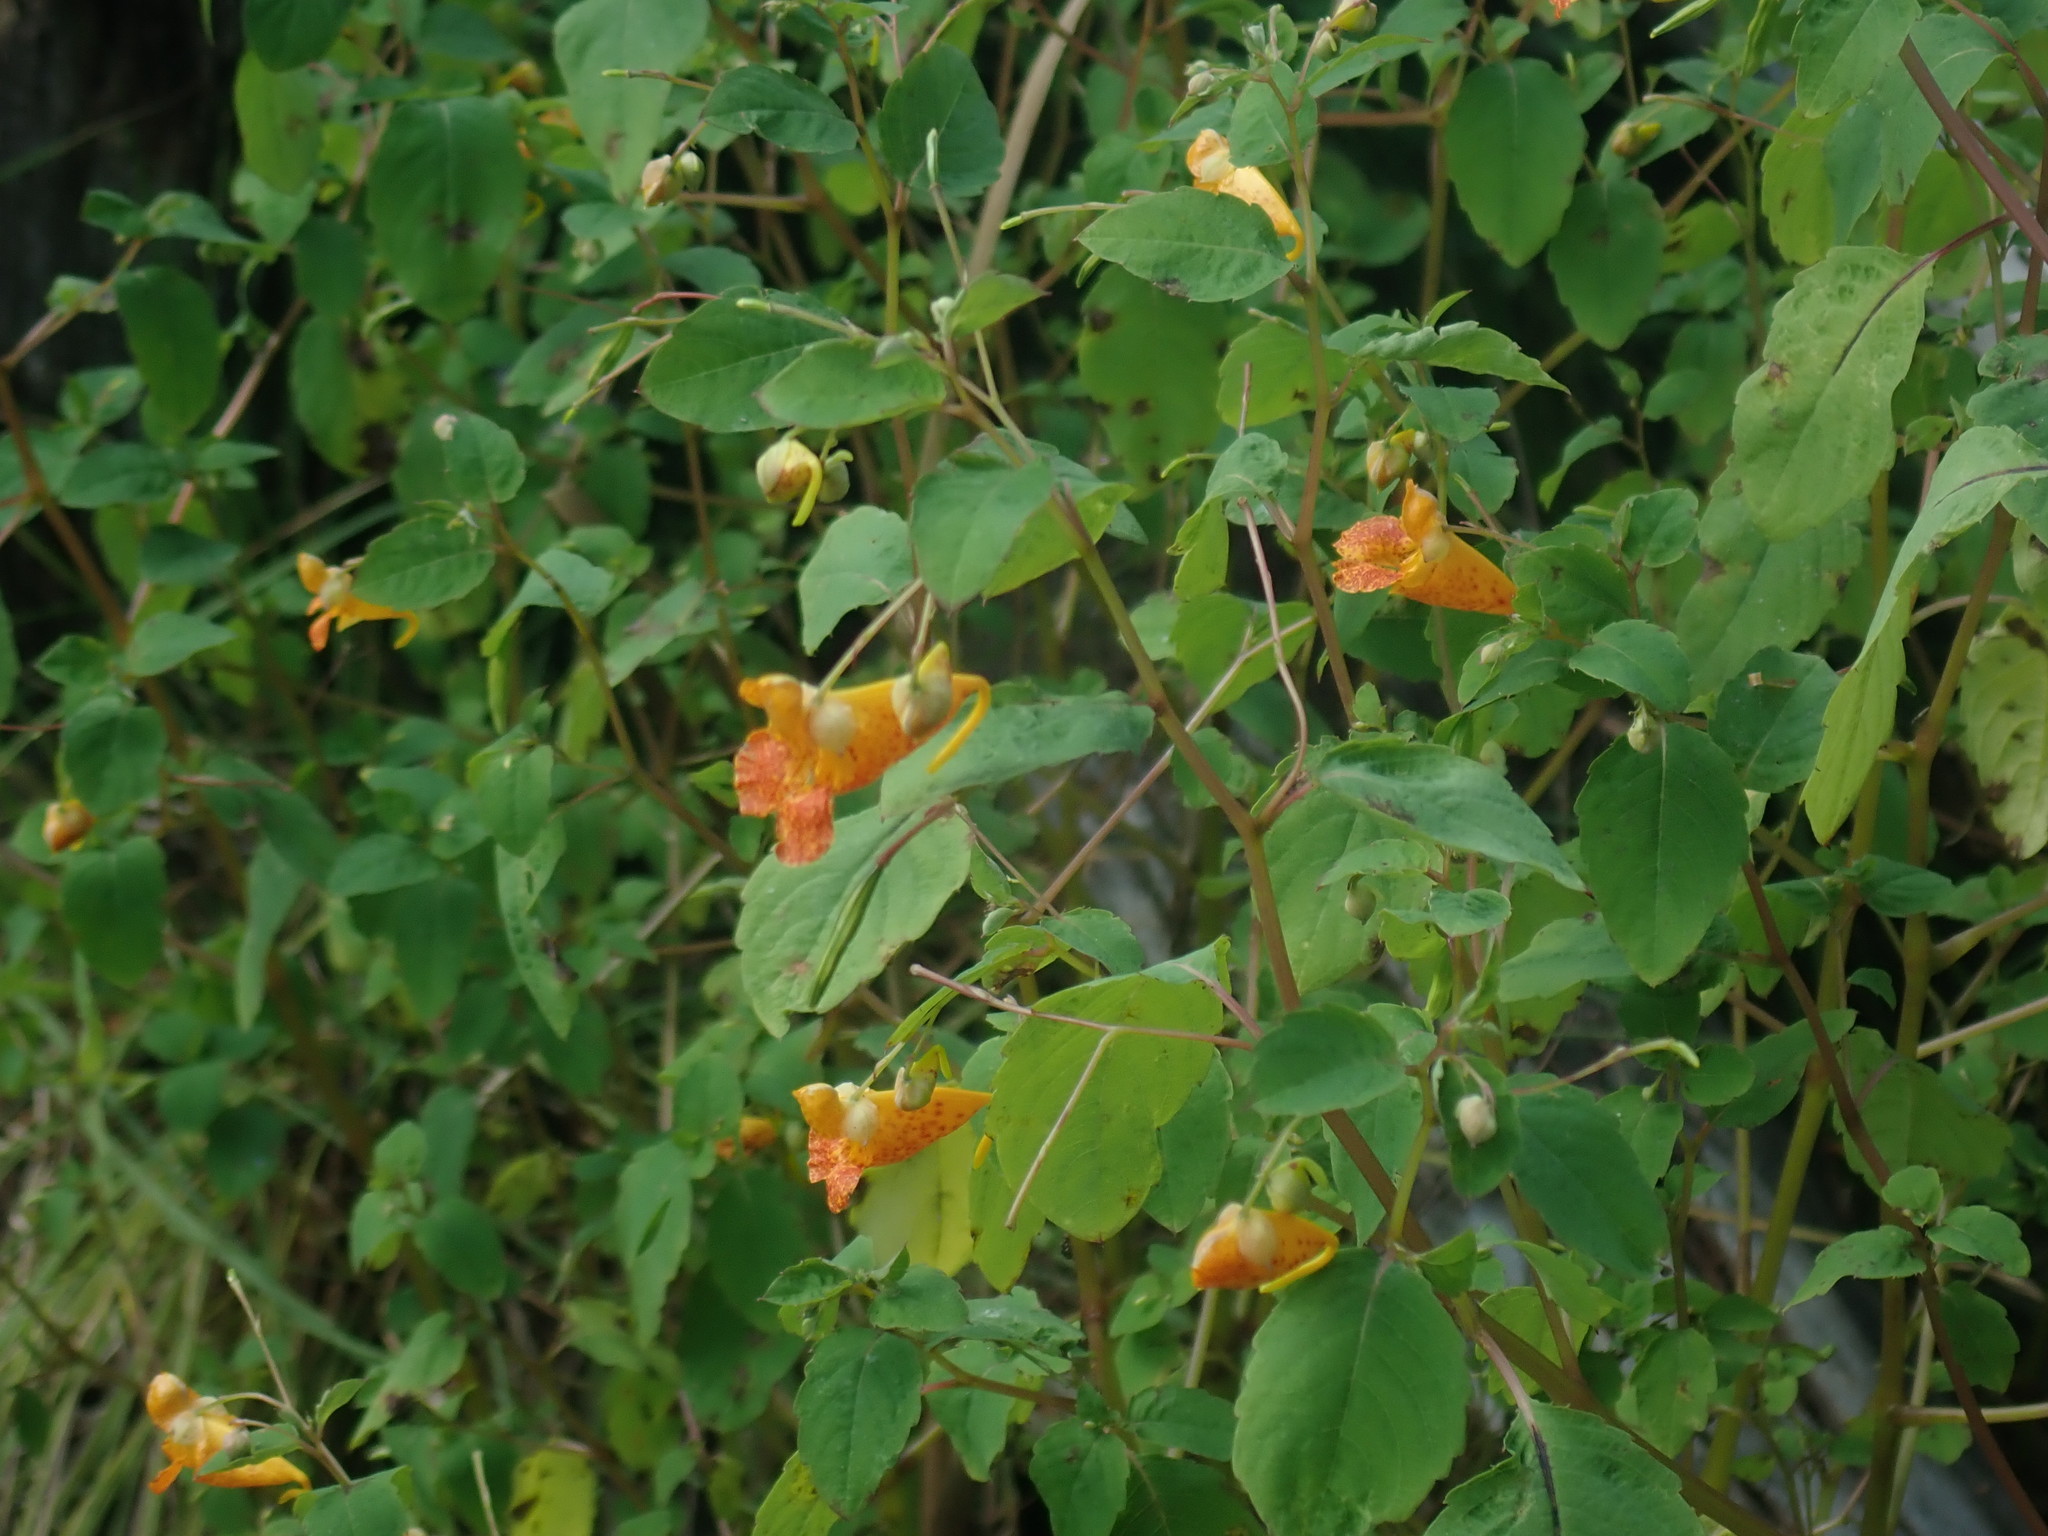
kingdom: Plantae
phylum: Tracheophyta
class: Magnoliopsida
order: Ericales
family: Balsaminaceae
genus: Impatiens
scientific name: Impatiens capensis
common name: Orange balsam
